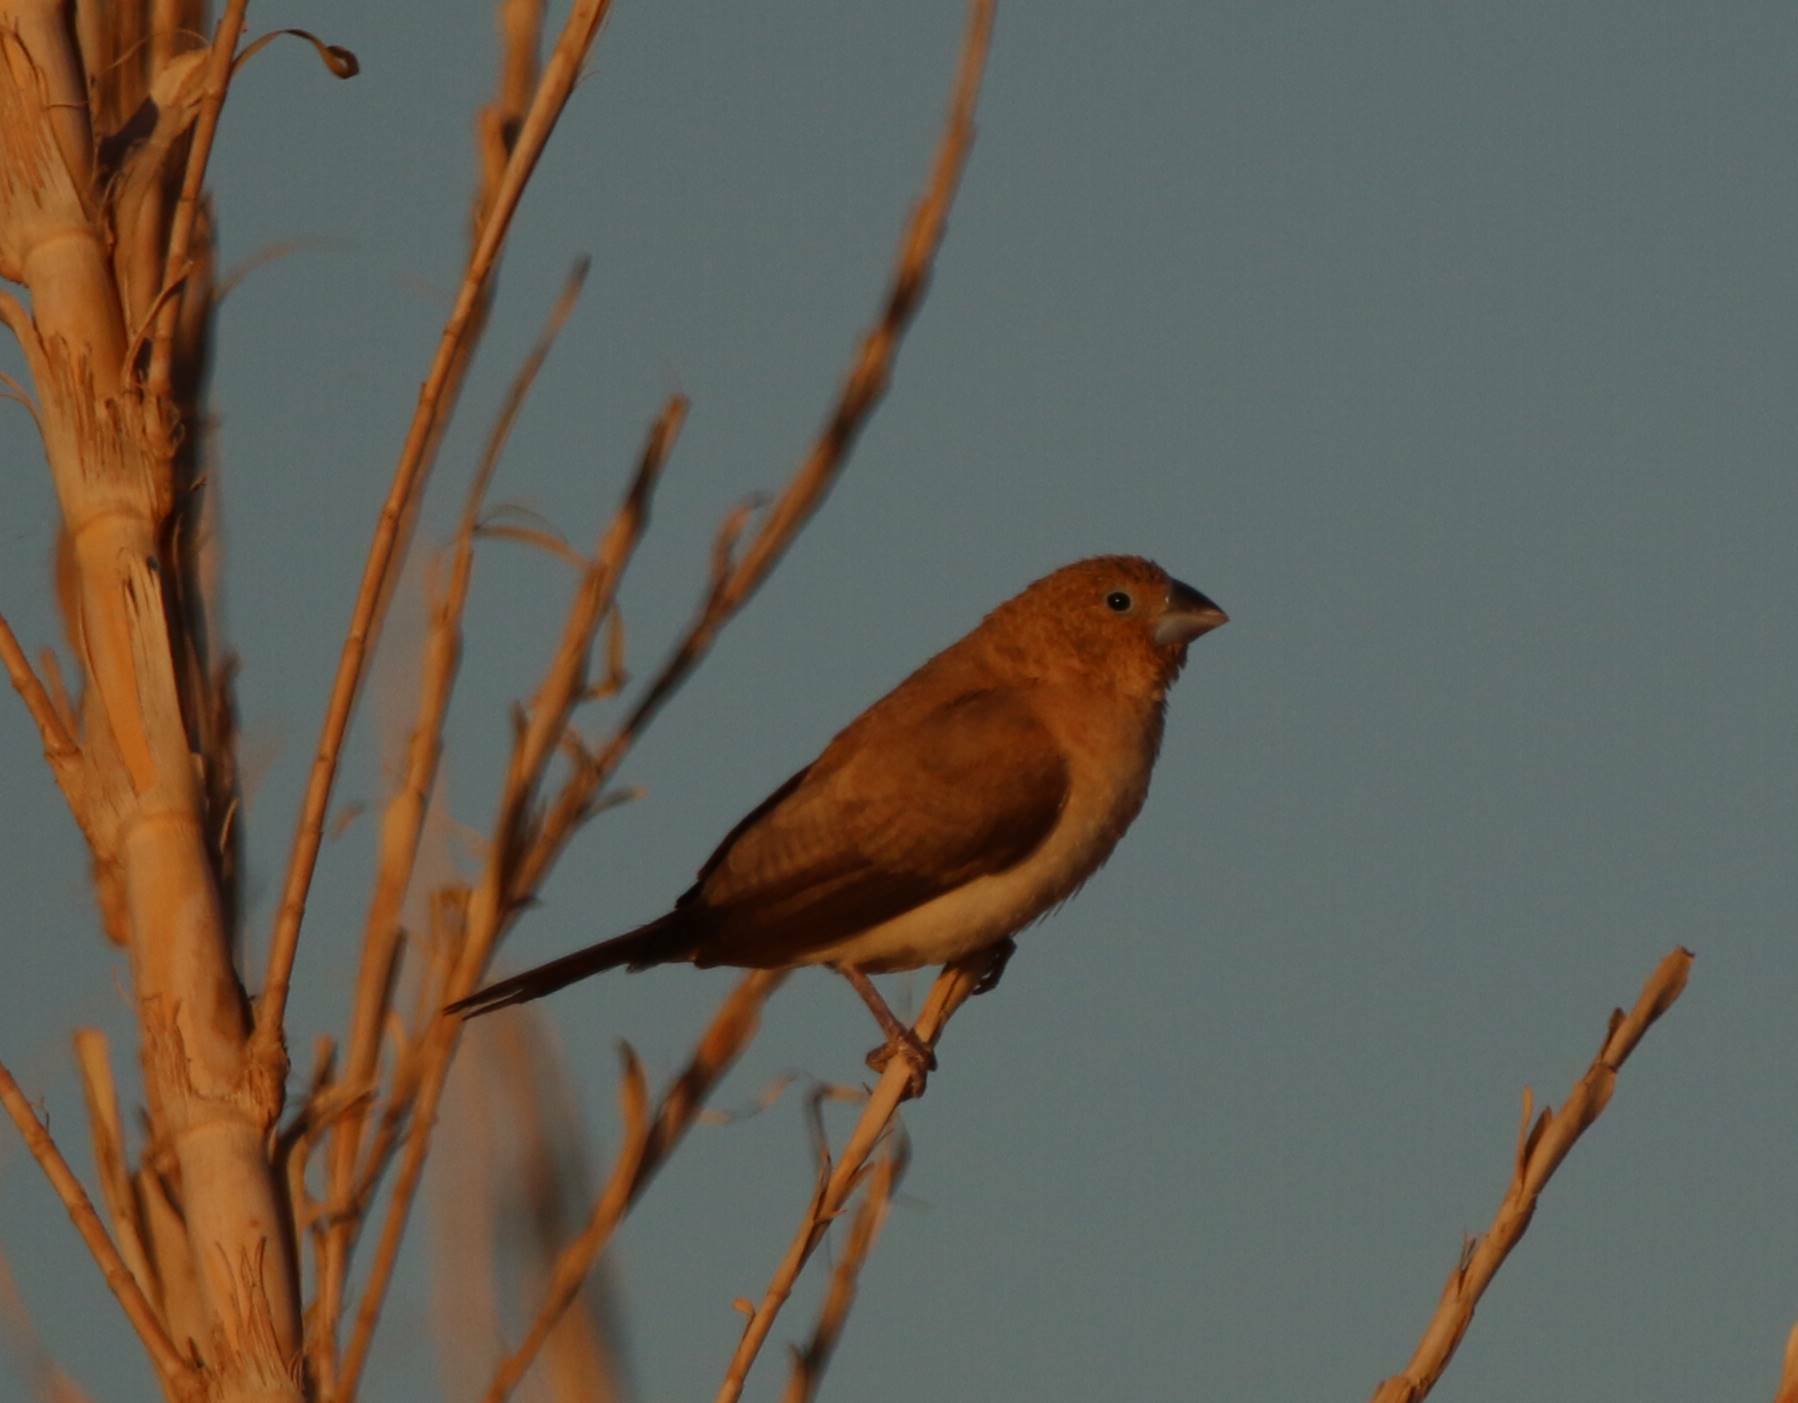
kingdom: Animalia
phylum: Chordata
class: Aves
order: Passeriformes
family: Estrildidae
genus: Euodice
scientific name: Euodice cantans
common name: African silverbill
